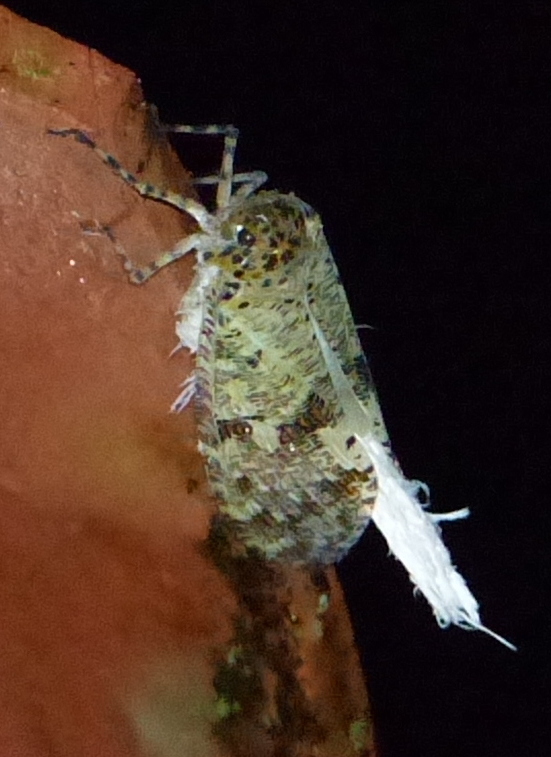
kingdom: Animalia
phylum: Arthropoda
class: Insecta
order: Hemiptera
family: Fulgoridae
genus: Phenax
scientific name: Phenax variegata
